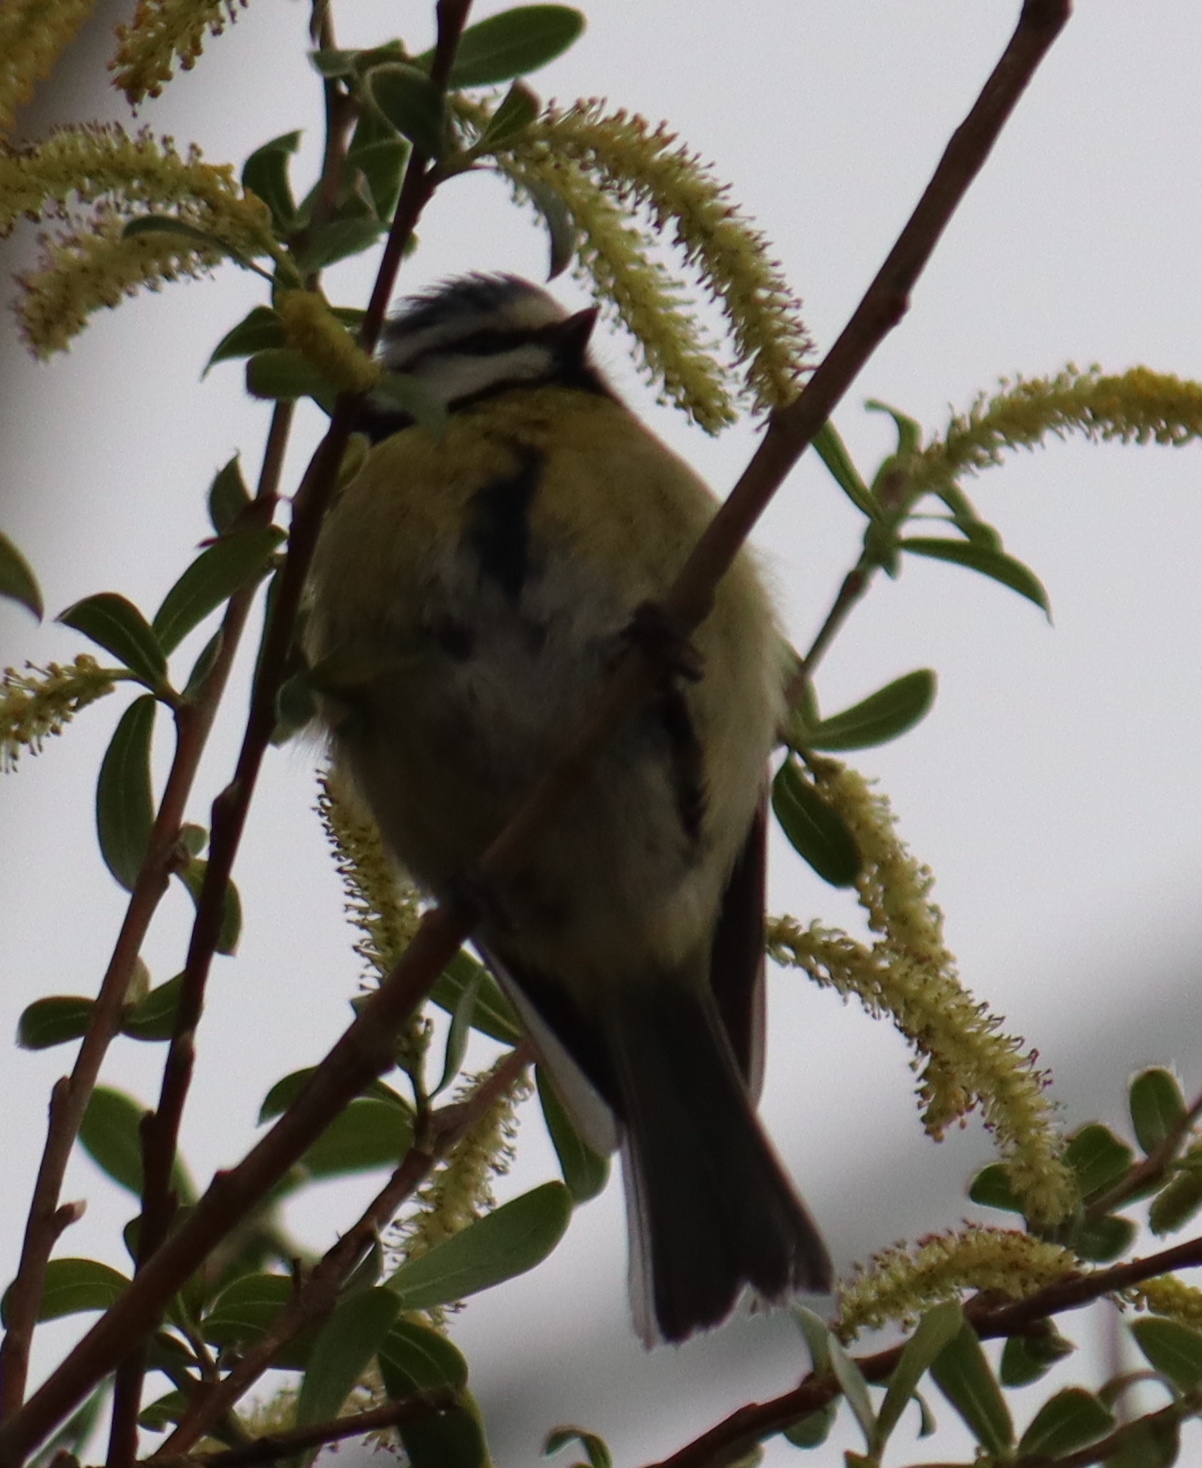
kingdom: Animalia
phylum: Chordata
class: Aves
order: Passeriformes
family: Paridae
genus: Cyanistes
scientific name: Cyanistes caeruleus
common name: Eurasian blue tit
